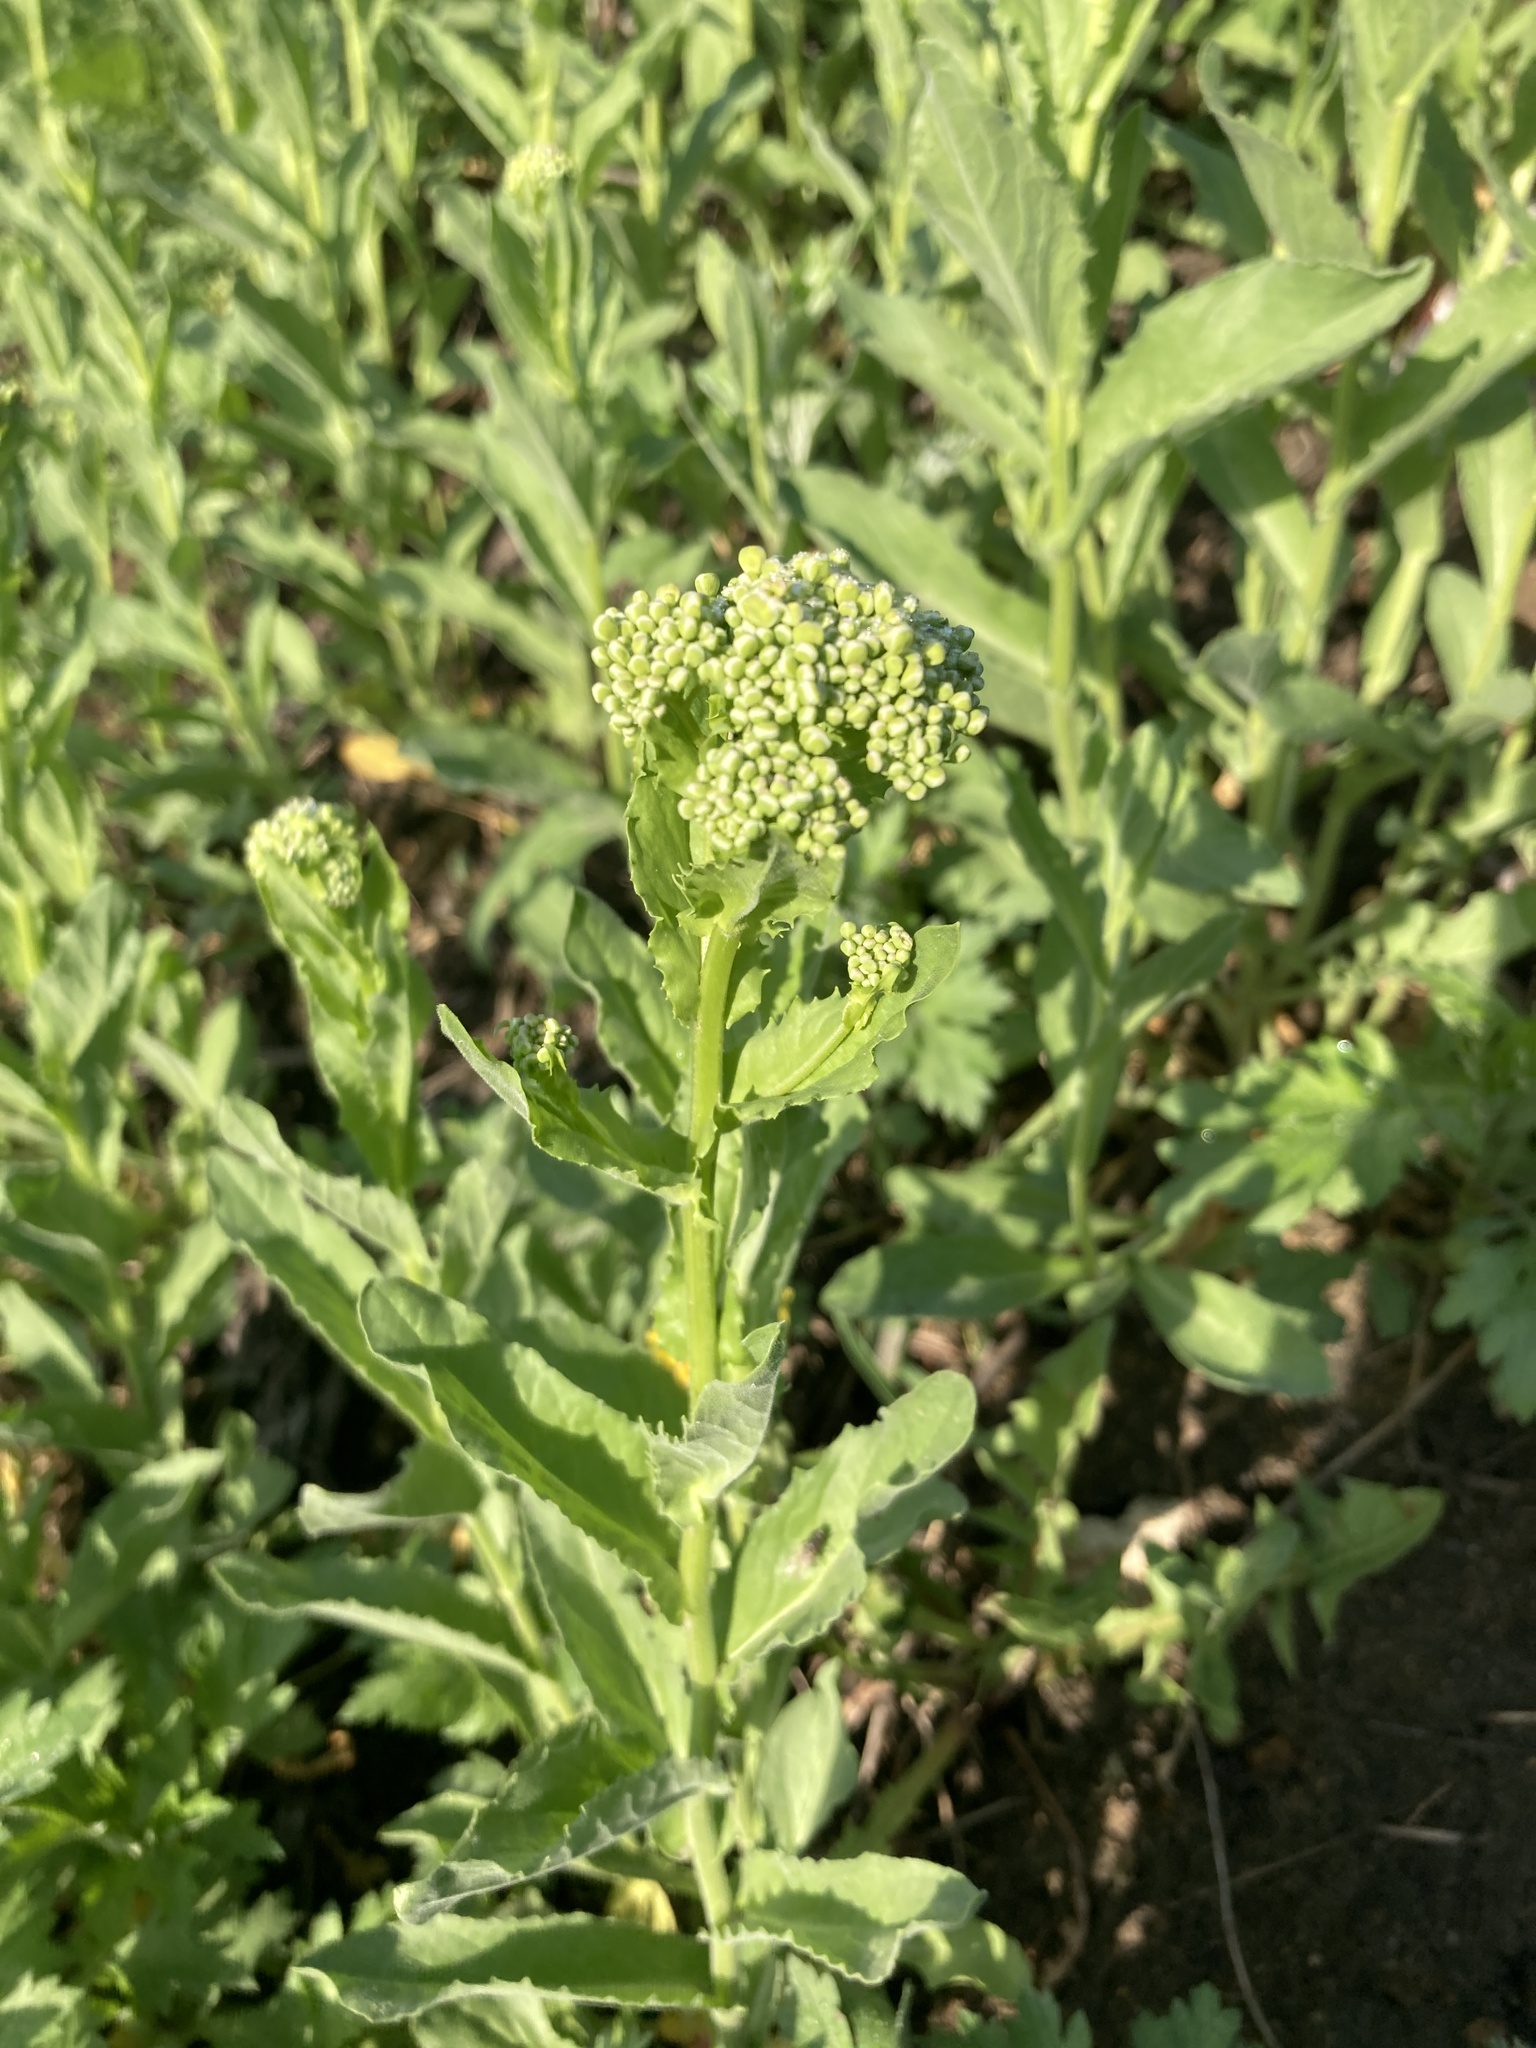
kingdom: Plantae
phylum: Tracheophyta
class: Magnoliopsida
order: Brassicales
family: Brassicaceae
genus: Lepidium
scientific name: Lepidium draba
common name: Hoary cress
